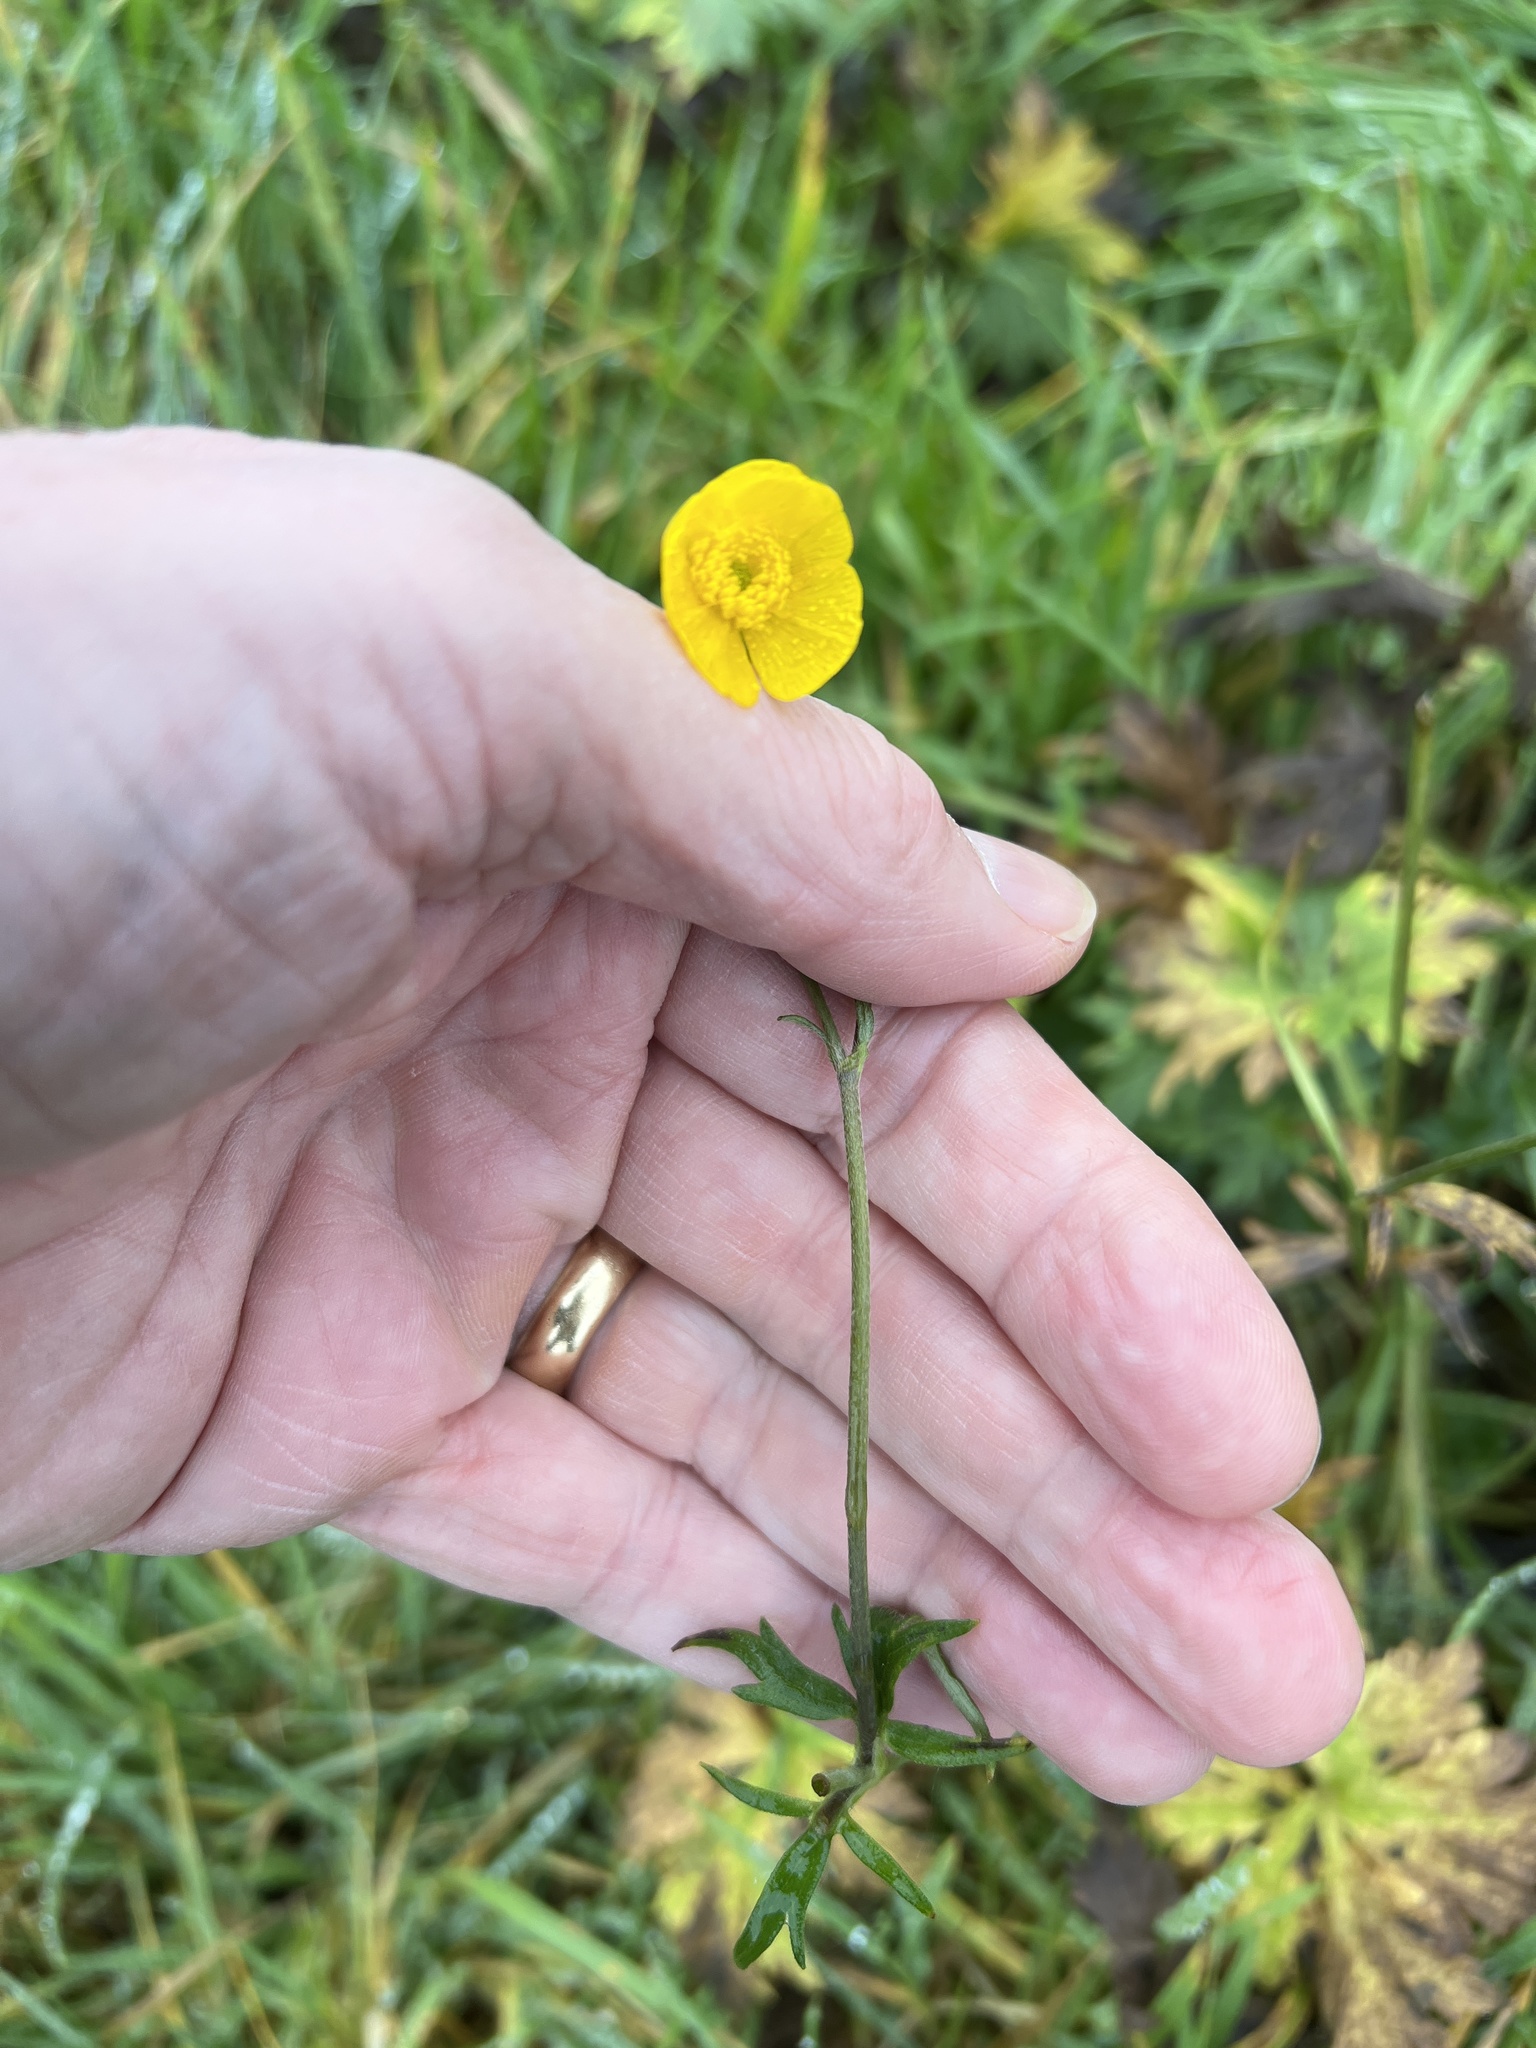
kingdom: Plantae
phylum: Tracheophyta
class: Magnoliopsida
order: Ranunculales
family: Ranunculaceae
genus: Ranunculus
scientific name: Ranunculus acris
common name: Meadow buttercup
